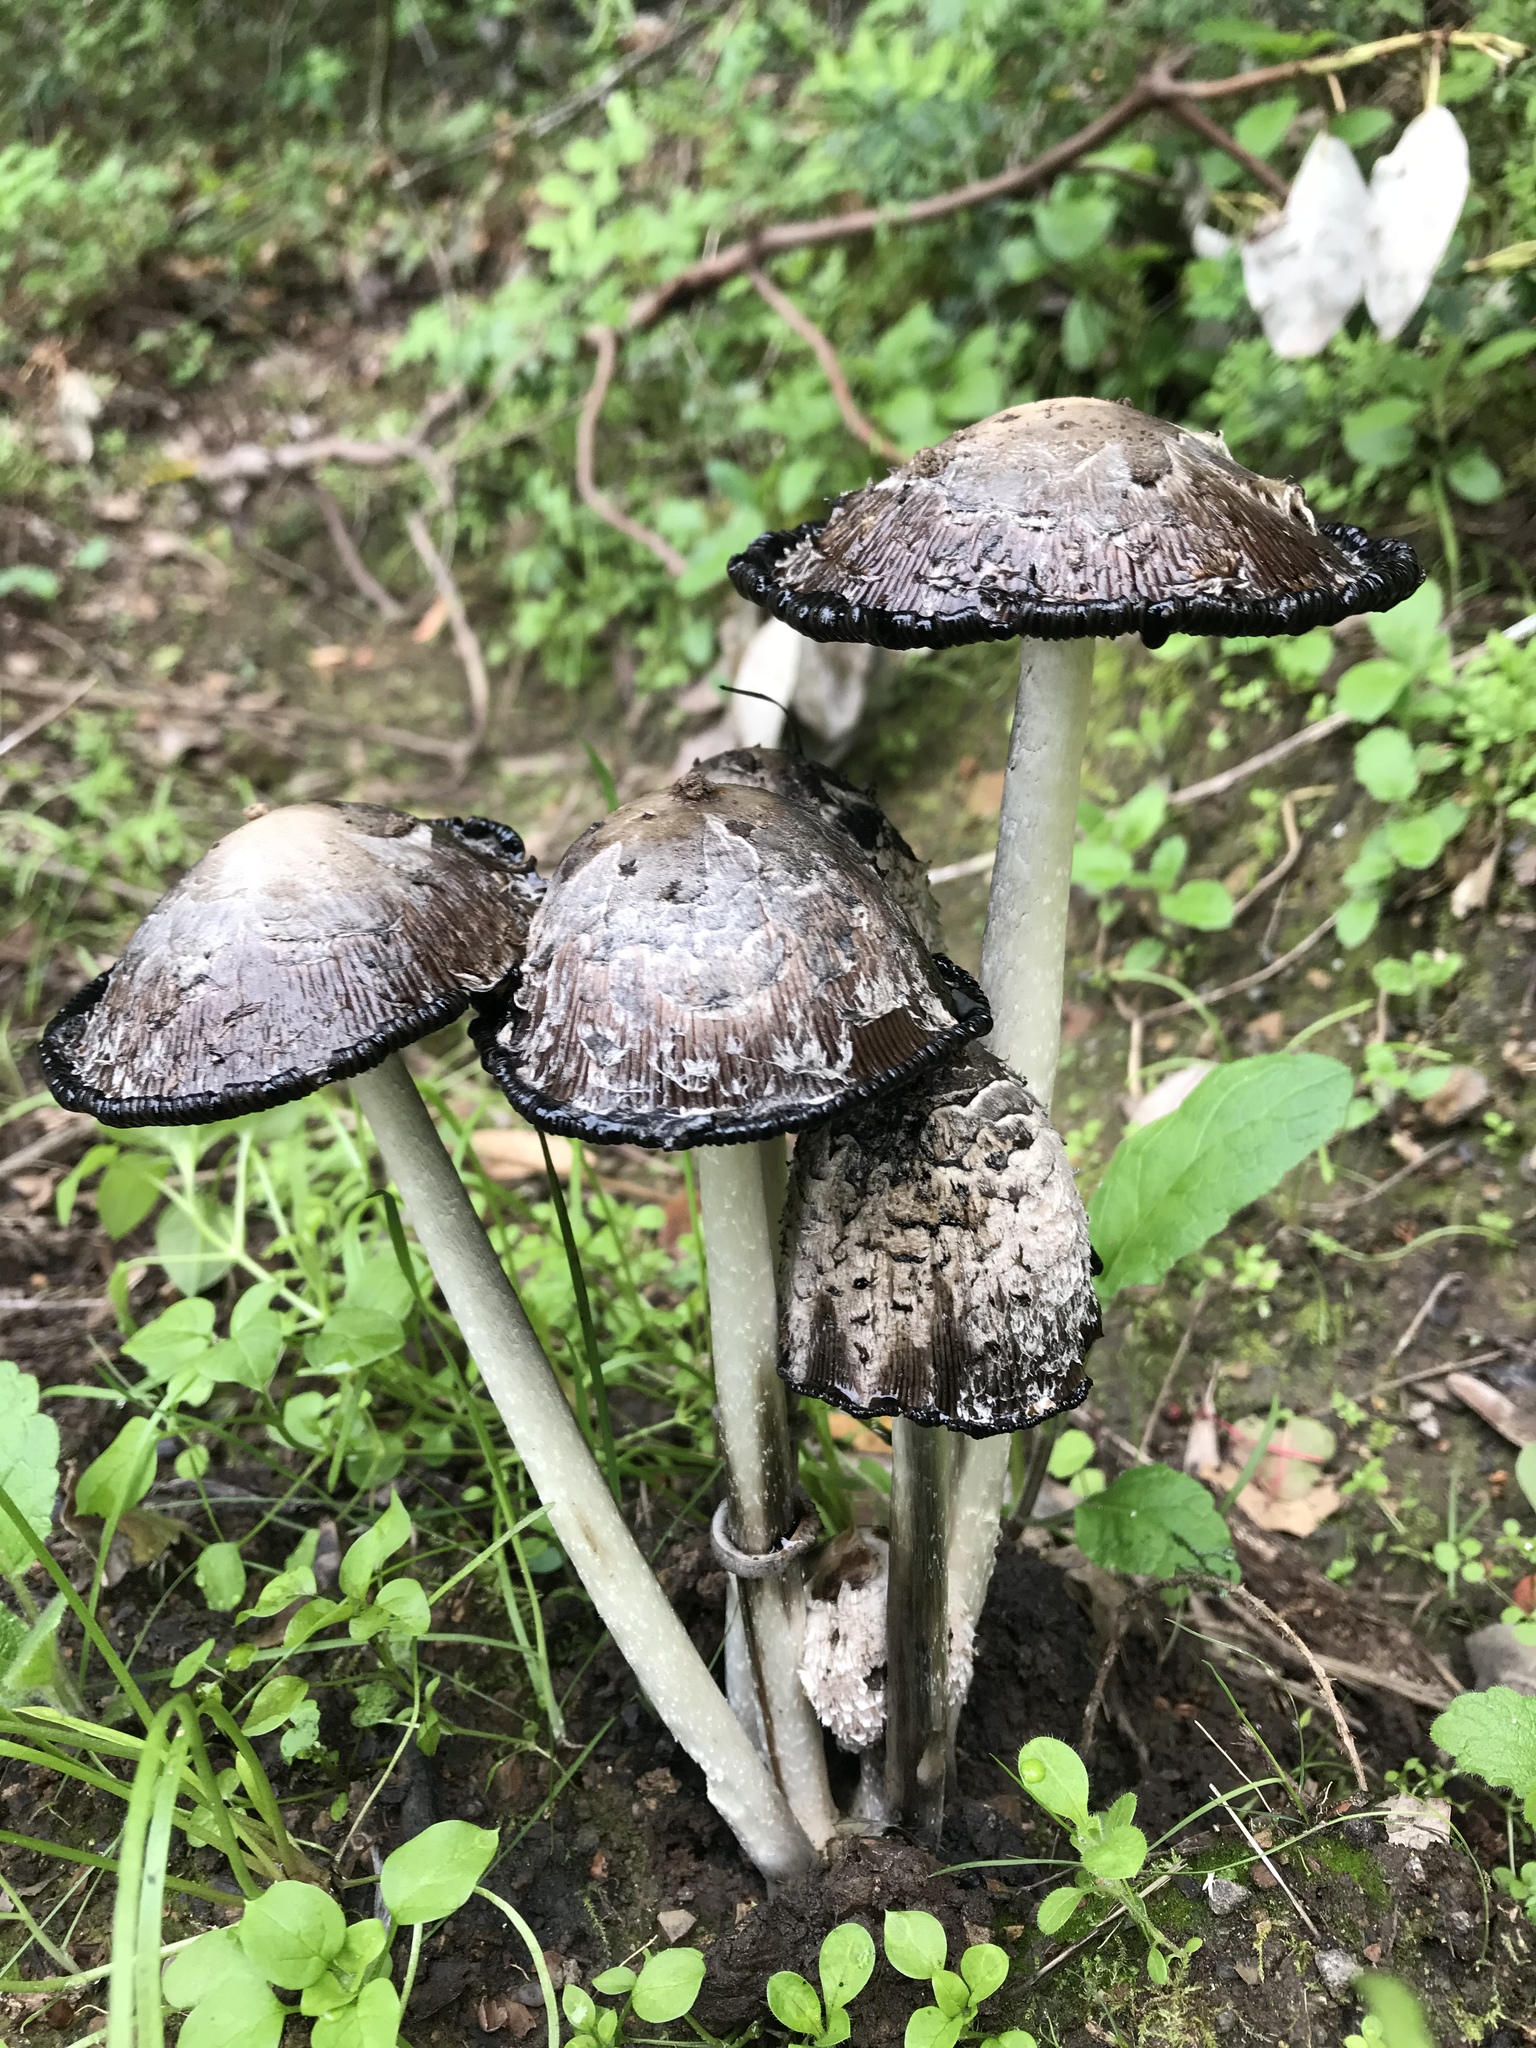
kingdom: Fungi
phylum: Basidiomycota
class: Agaricomycetes
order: Agaricales
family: Agaricaceae
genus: Coprinus
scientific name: Coprinus comatus
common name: Lawyer's wig
